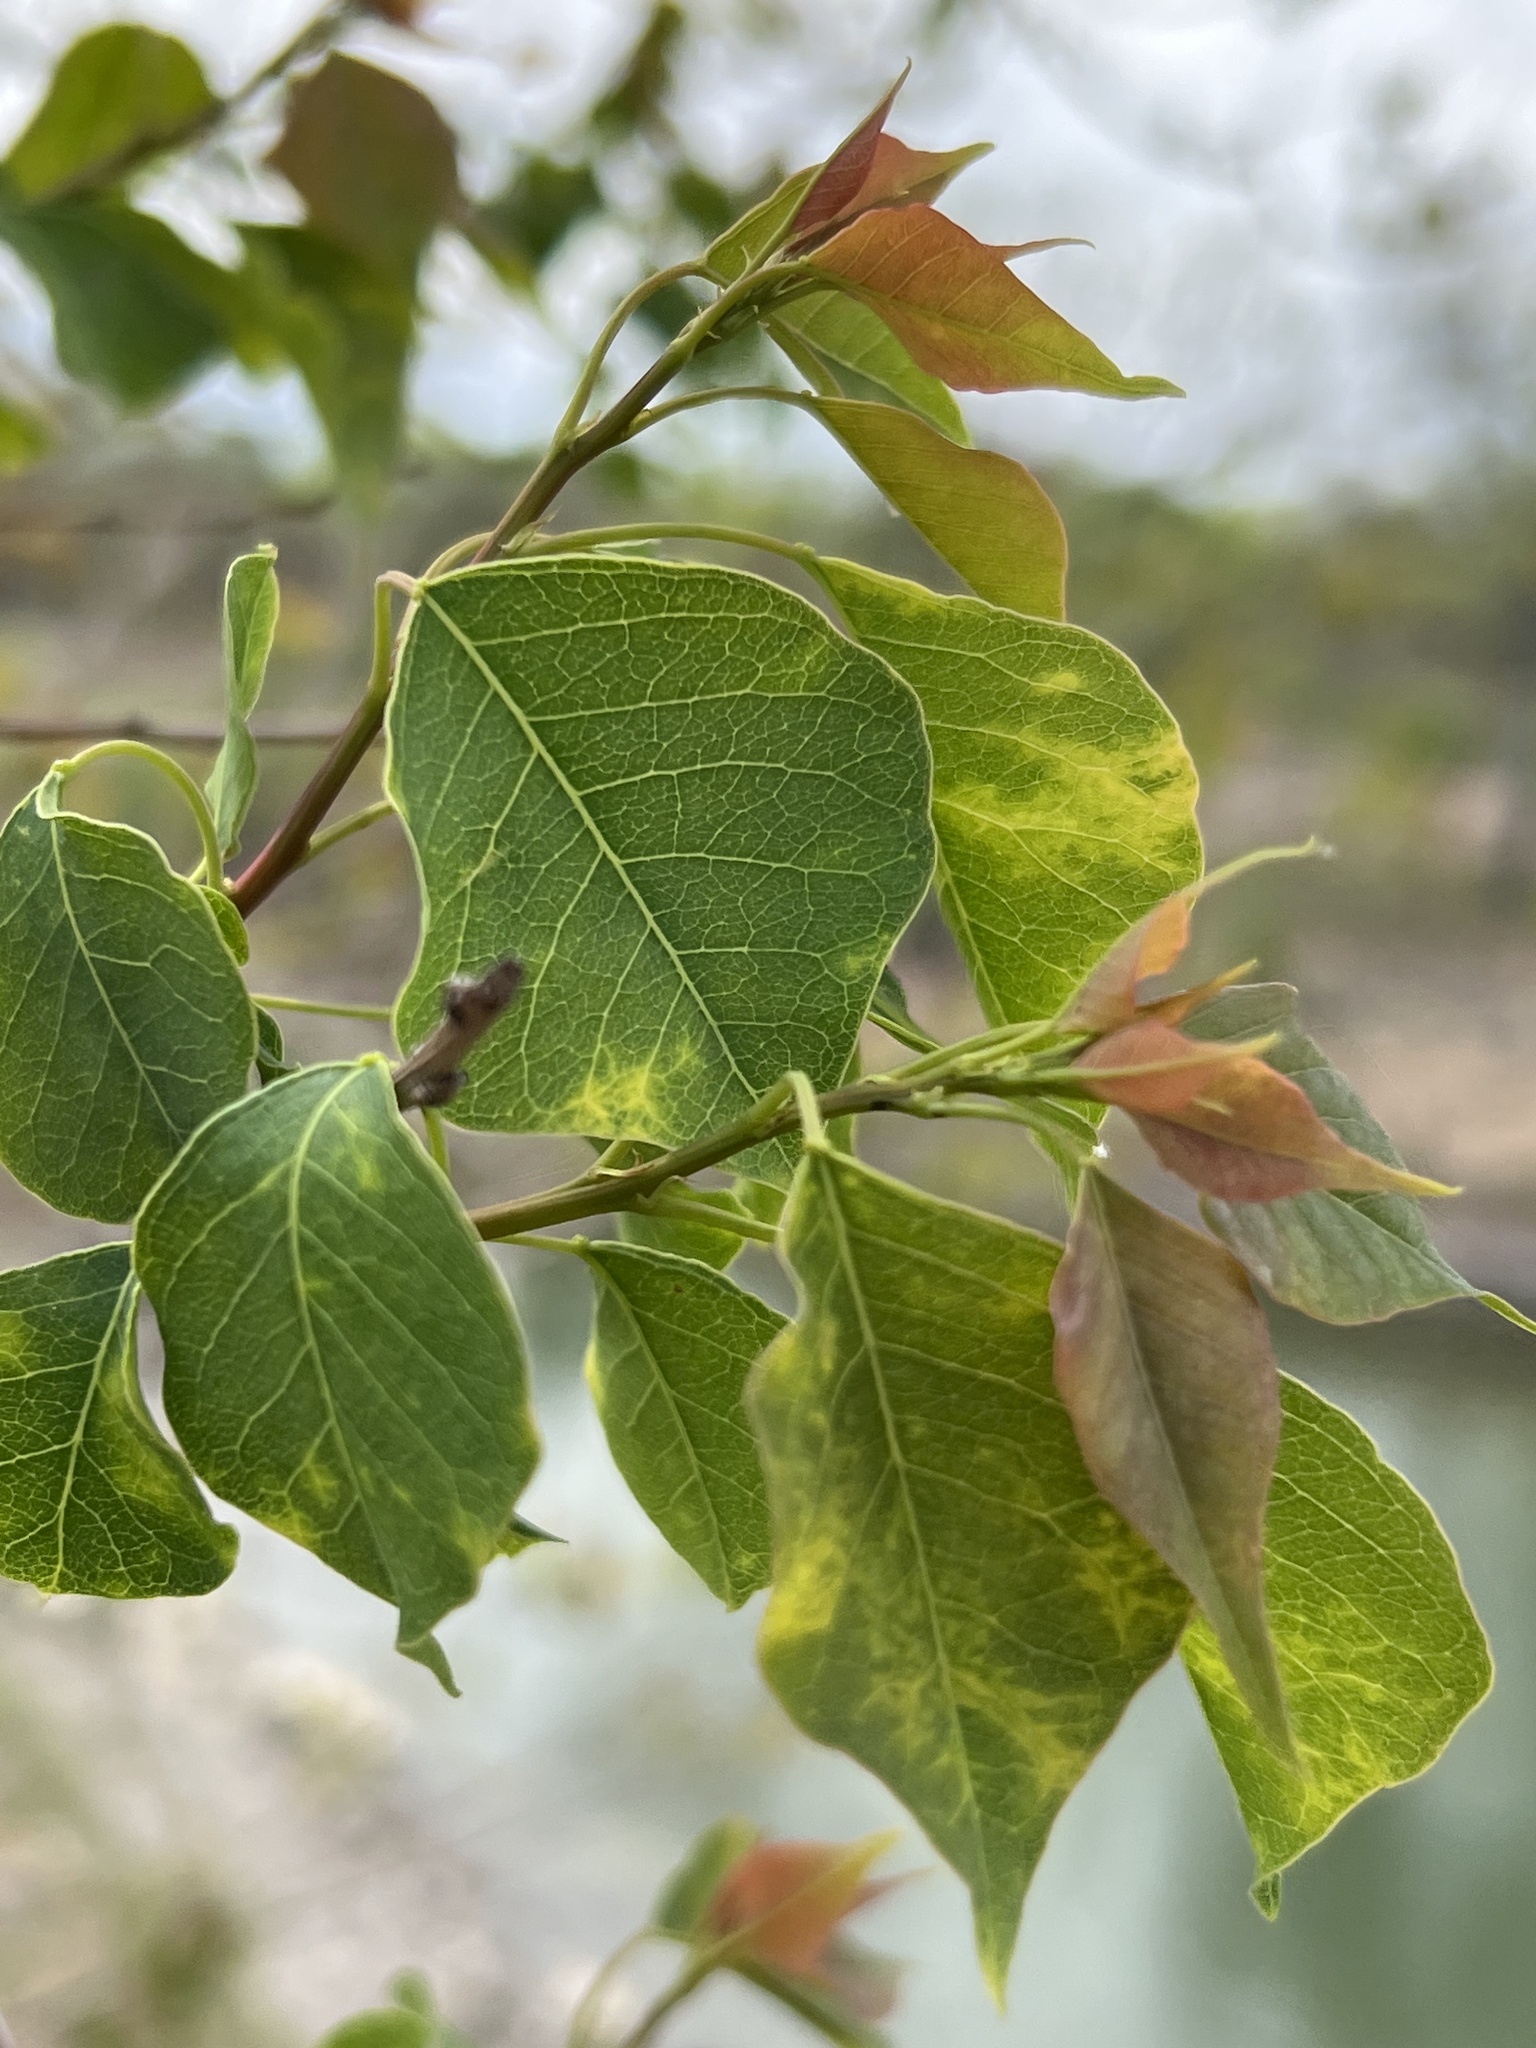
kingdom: Plantae
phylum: Tracheophyta
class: Magnoliopsida
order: Malpighiales
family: Euphorbiaceae
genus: Triadica
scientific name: Triadica sebifera
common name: Chinese tallow
